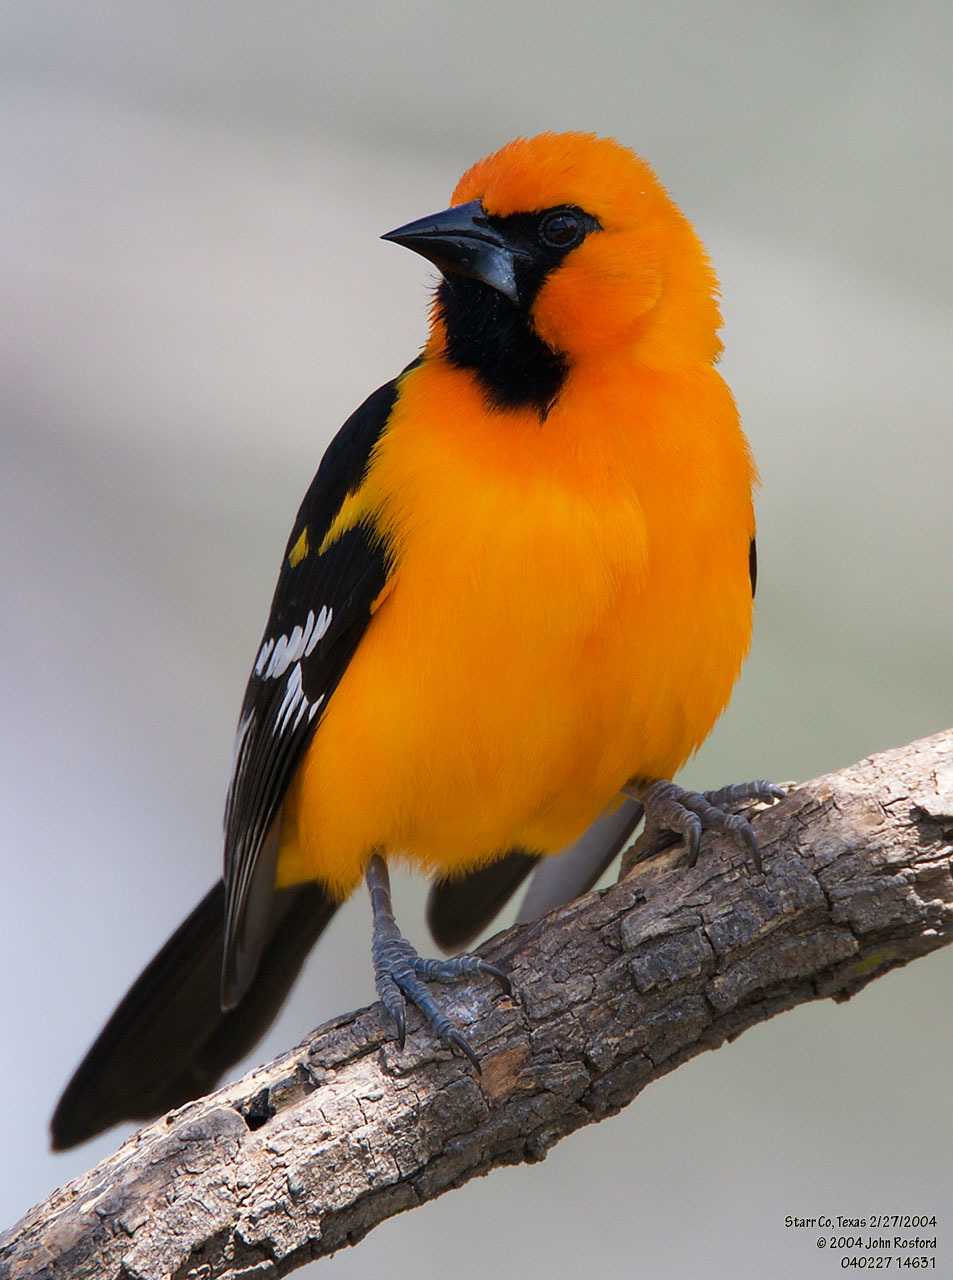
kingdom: Animalia
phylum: Chordata
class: Aves
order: Passeriformes
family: Icteridae
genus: Icterus
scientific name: Icterus gularis
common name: Altamira oriole
